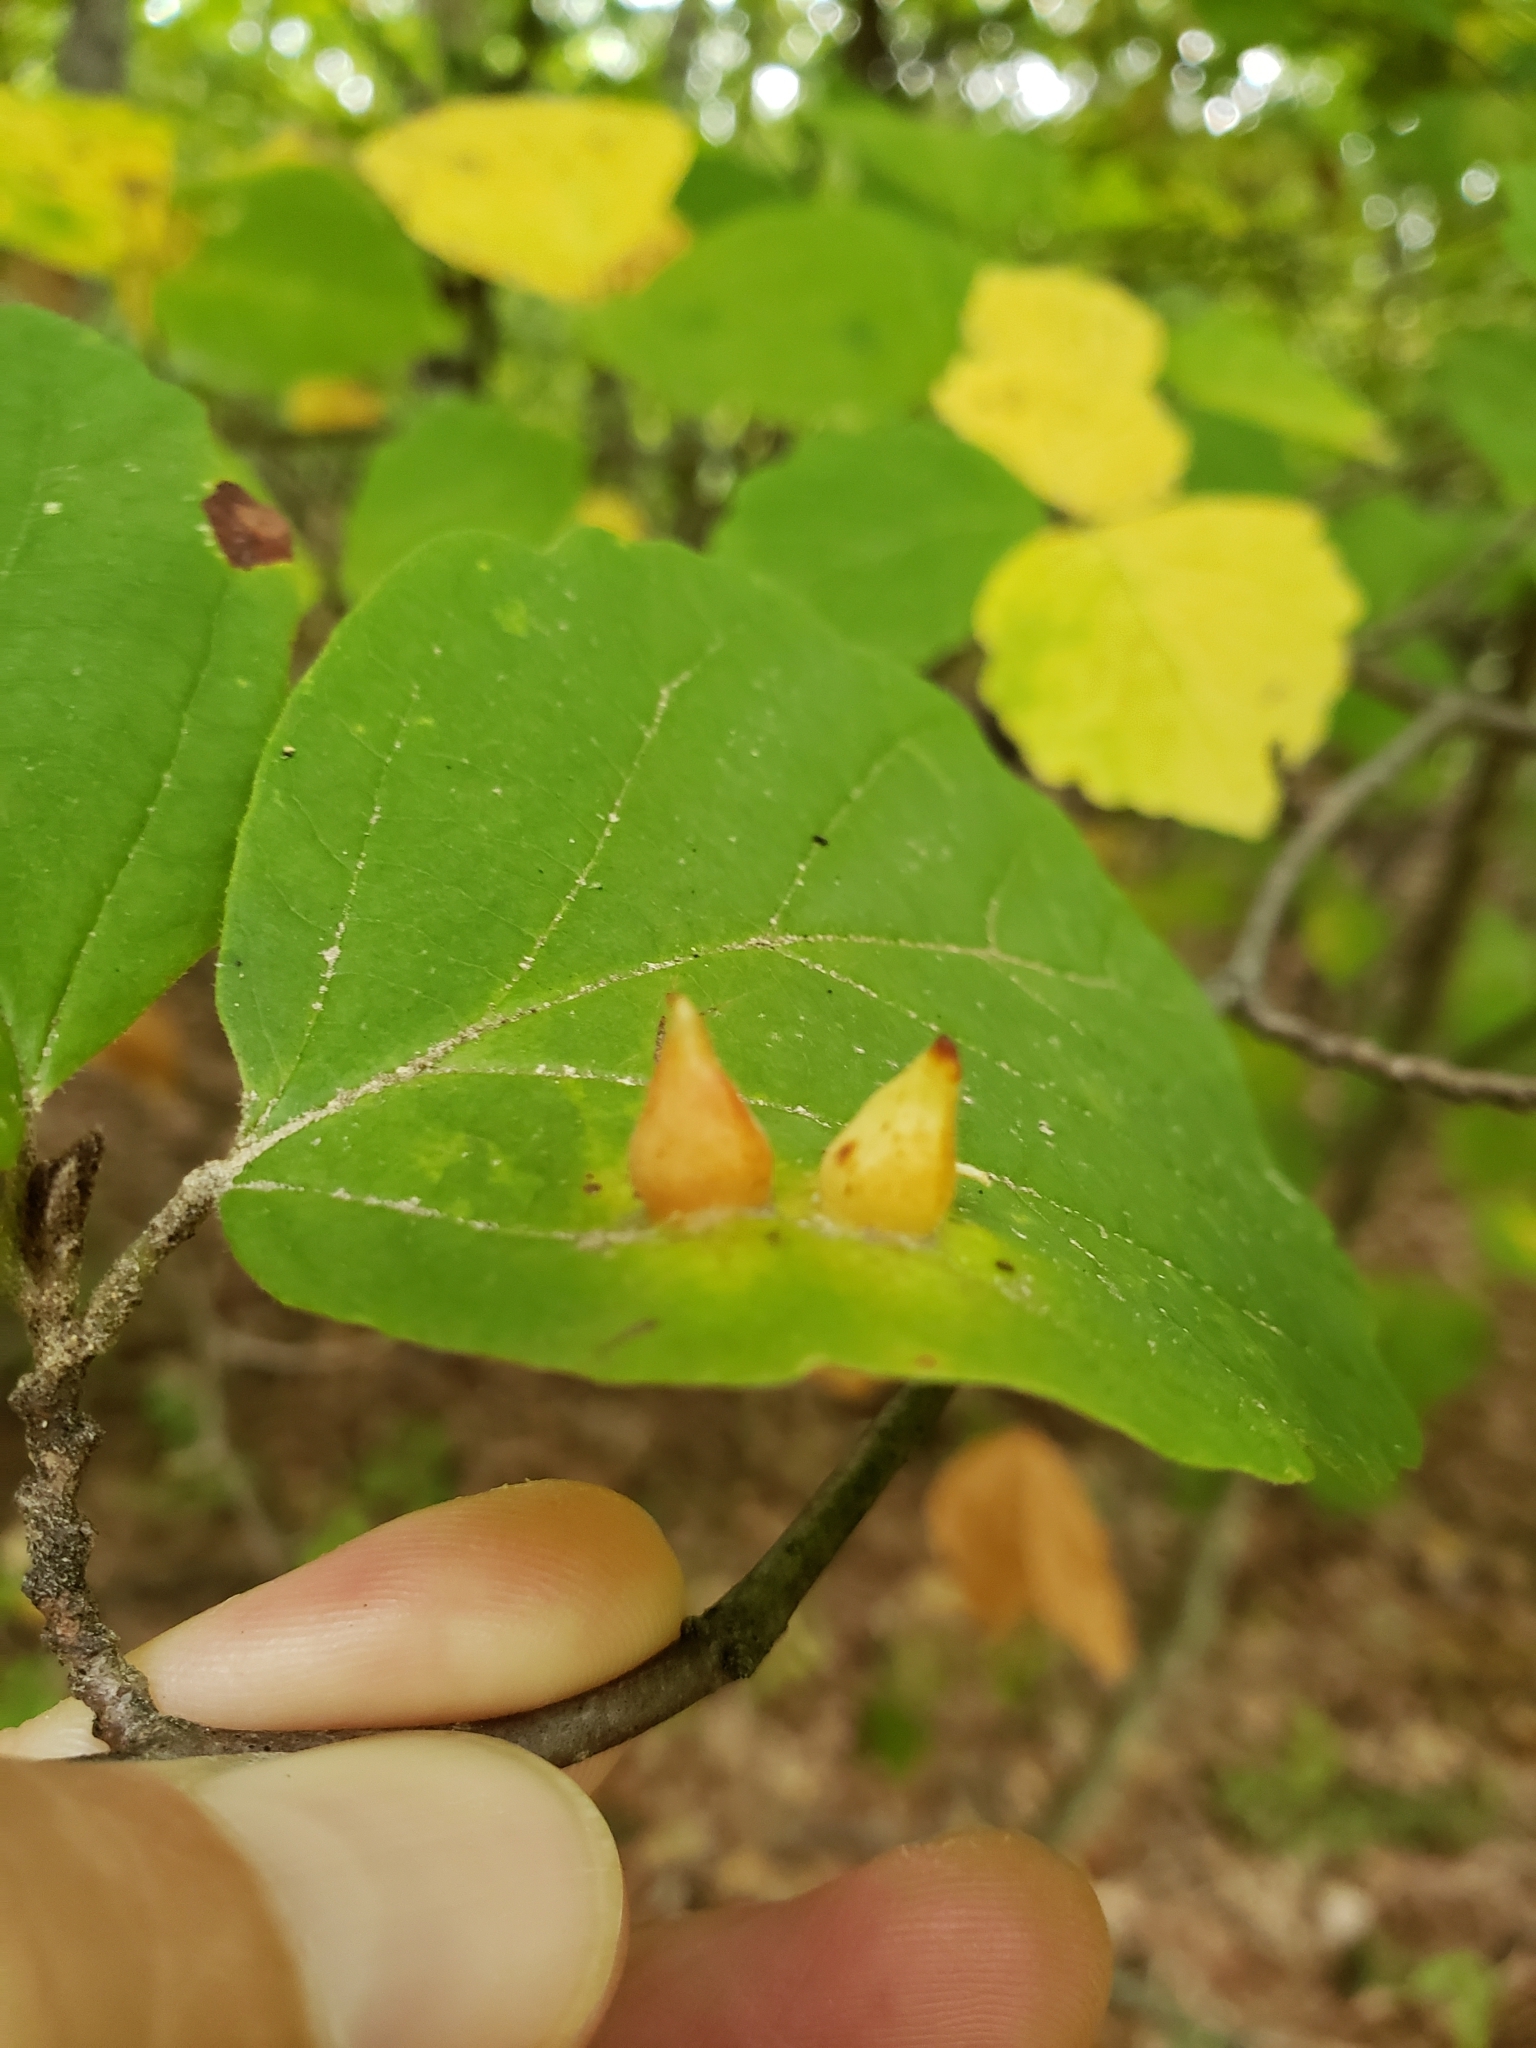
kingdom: Animalia
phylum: Arthropoda
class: Insecta
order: Hemiptera
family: Aphididae
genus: Hormaphis
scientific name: Hormaphis hamamelidis
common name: Witch-hazel cone gall aphid
